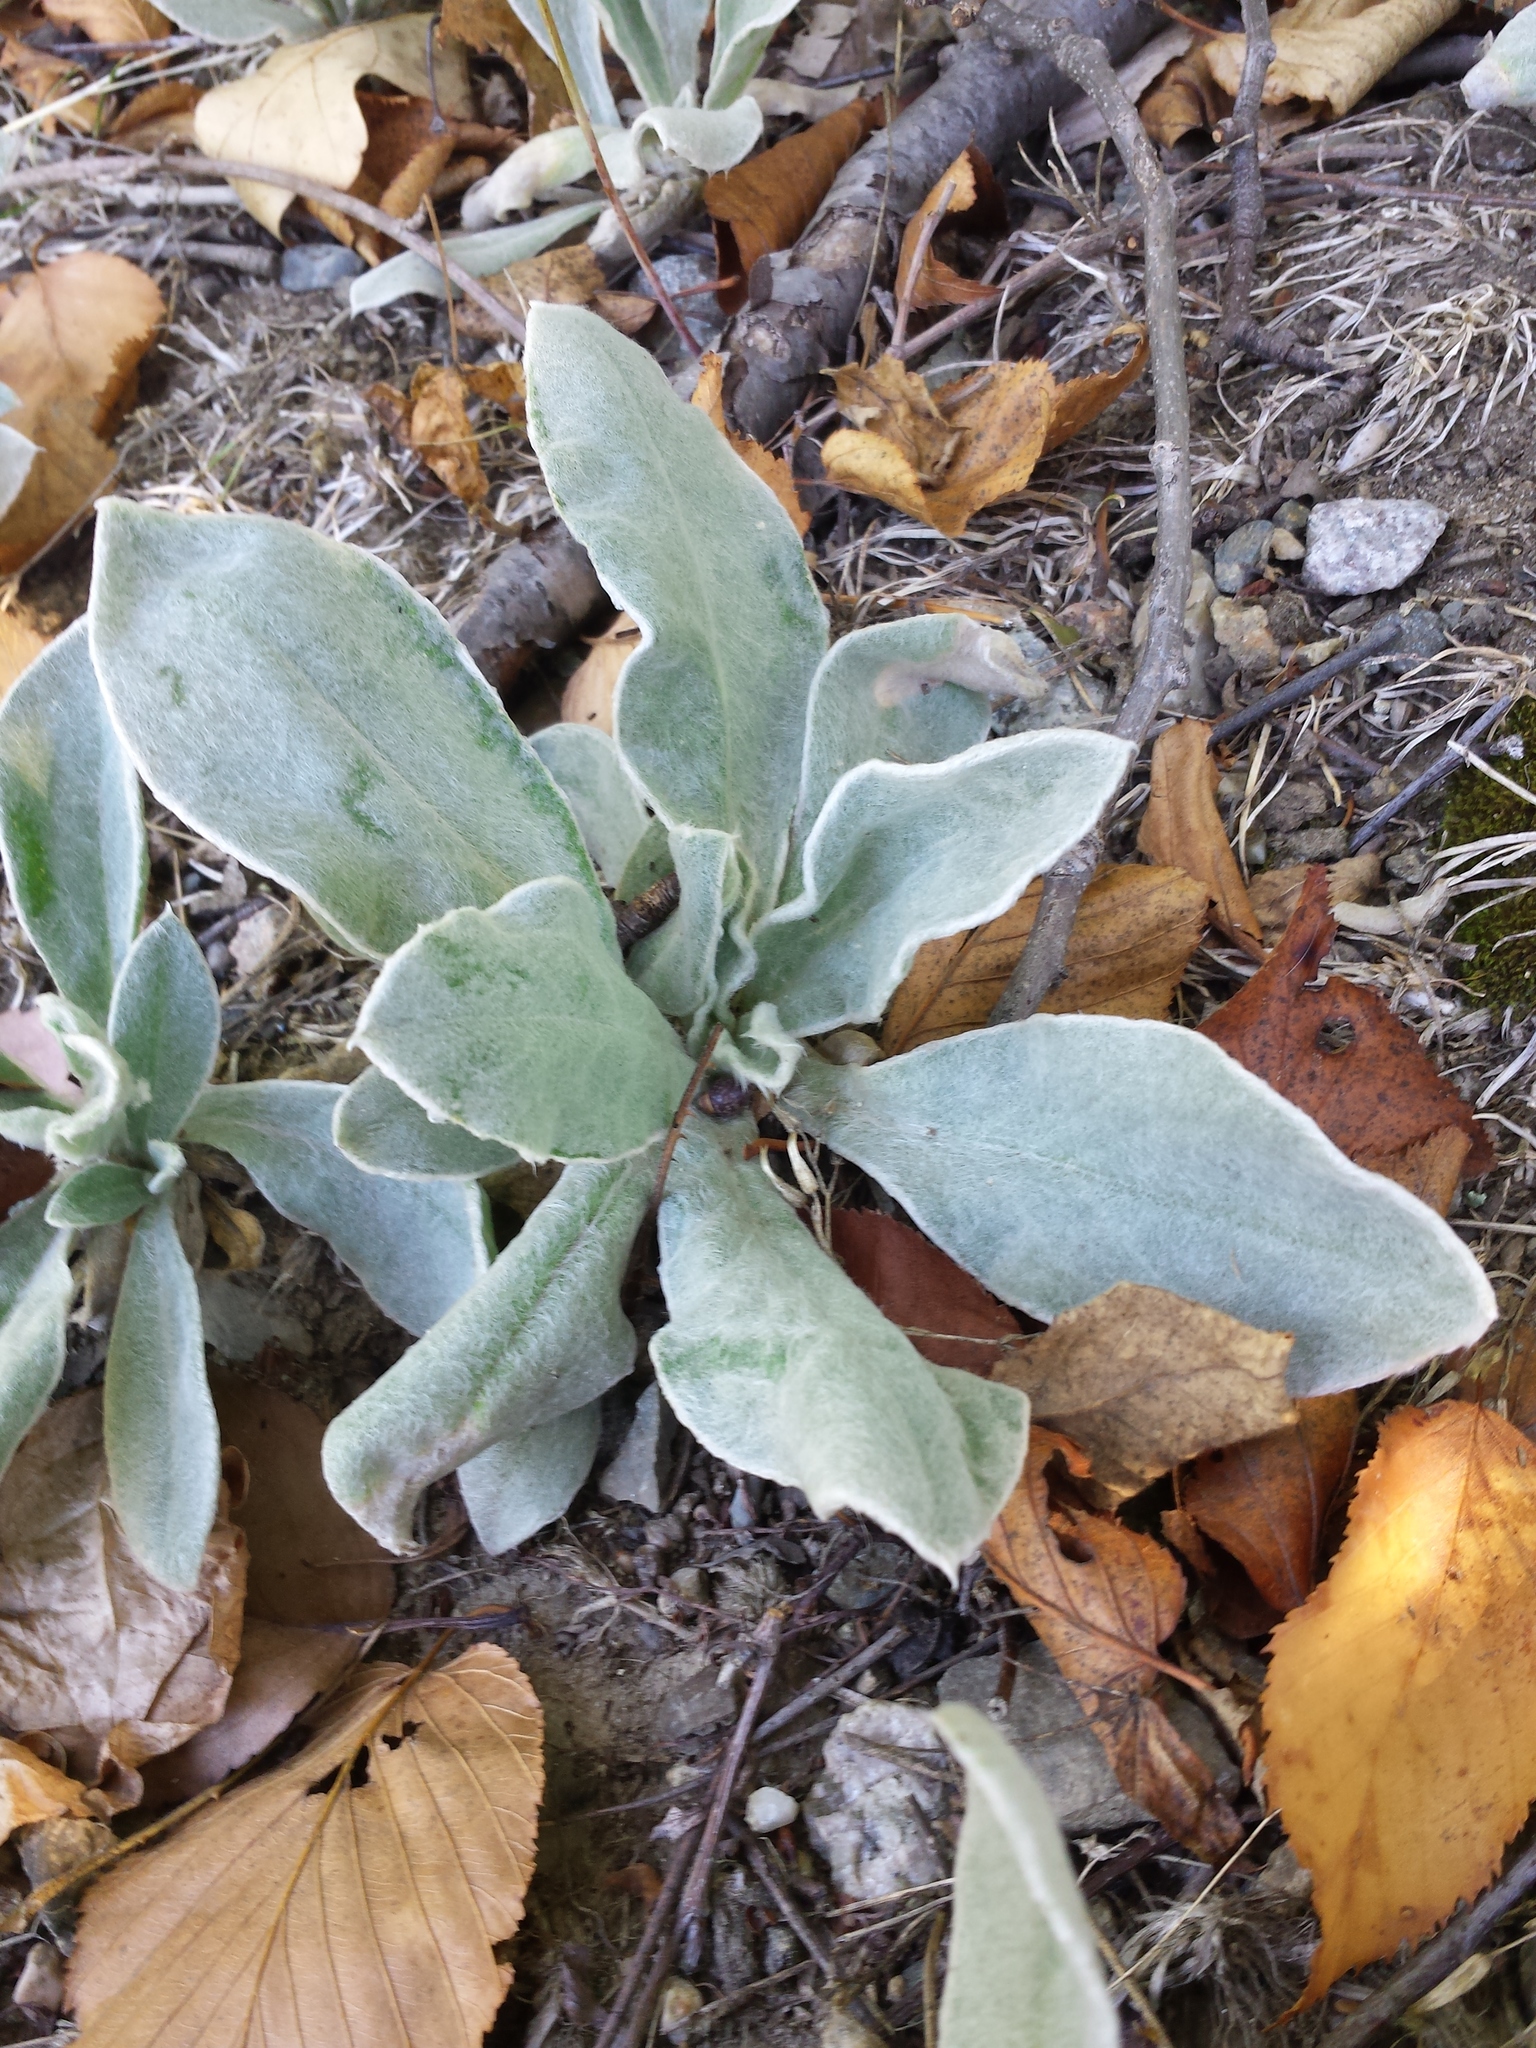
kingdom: Plantae
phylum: Tracheophyta
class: Magnoliopsida
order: Caryophyllales
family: Caryophyllaceae
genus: Silene
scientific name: Silene coronaria
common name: Rose campion
